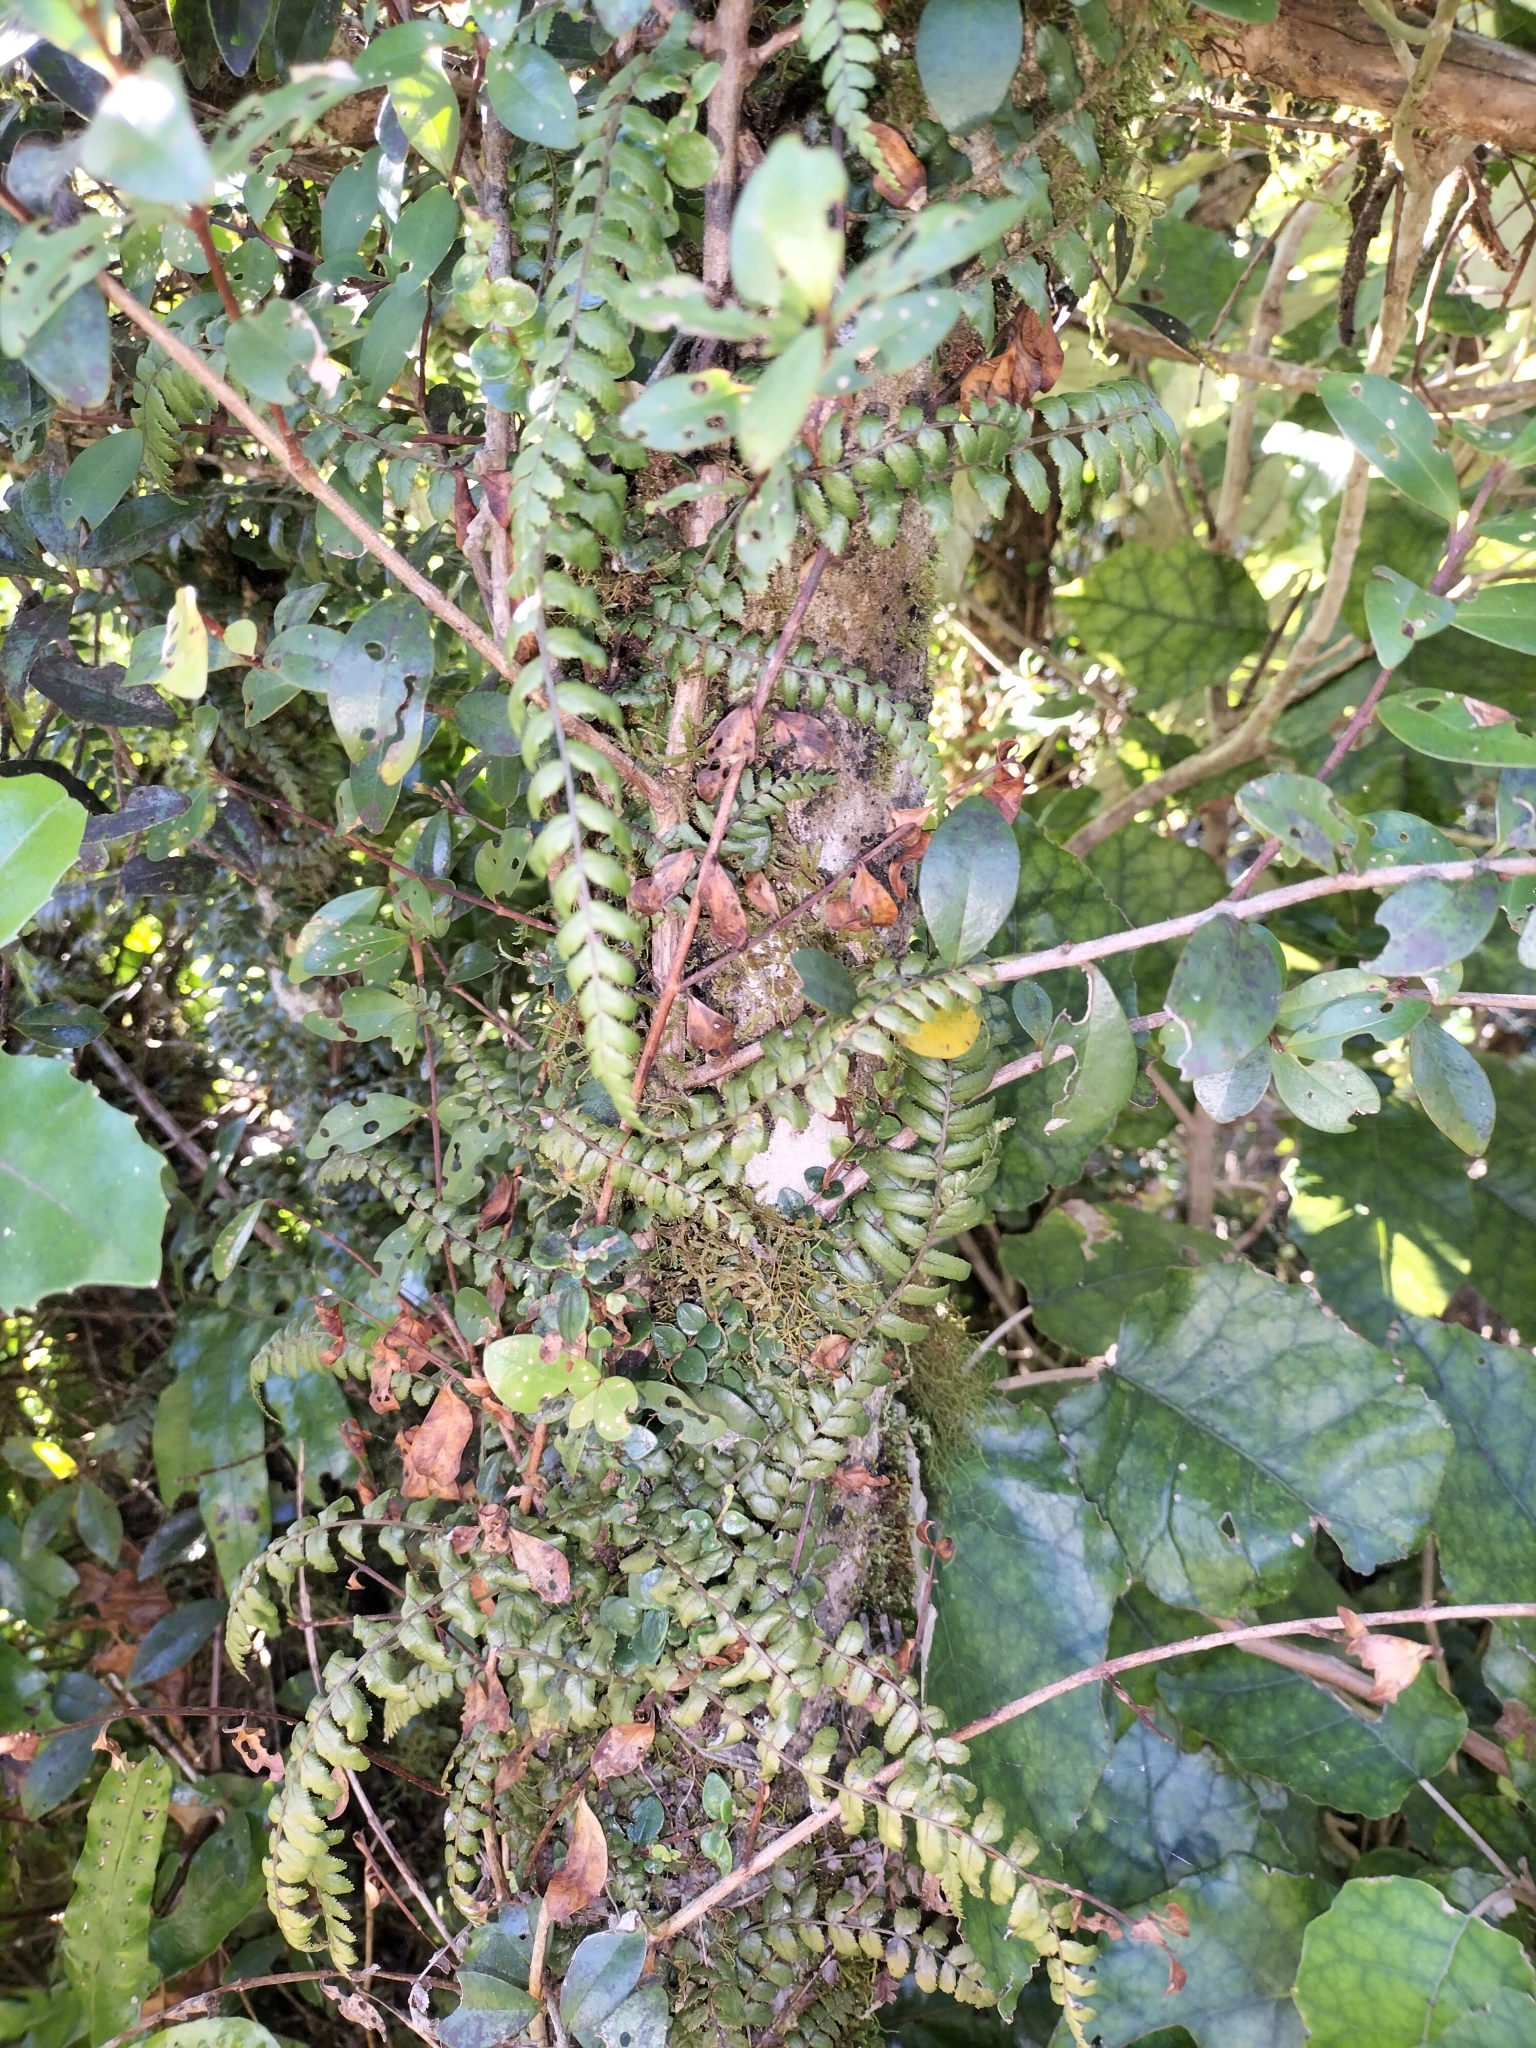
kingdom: Plantae
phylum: Tracheophyta
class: Polypodiopsida
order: Polypodiales
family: Blechnaceae
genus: Icarus
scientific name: Icarus filiformis
